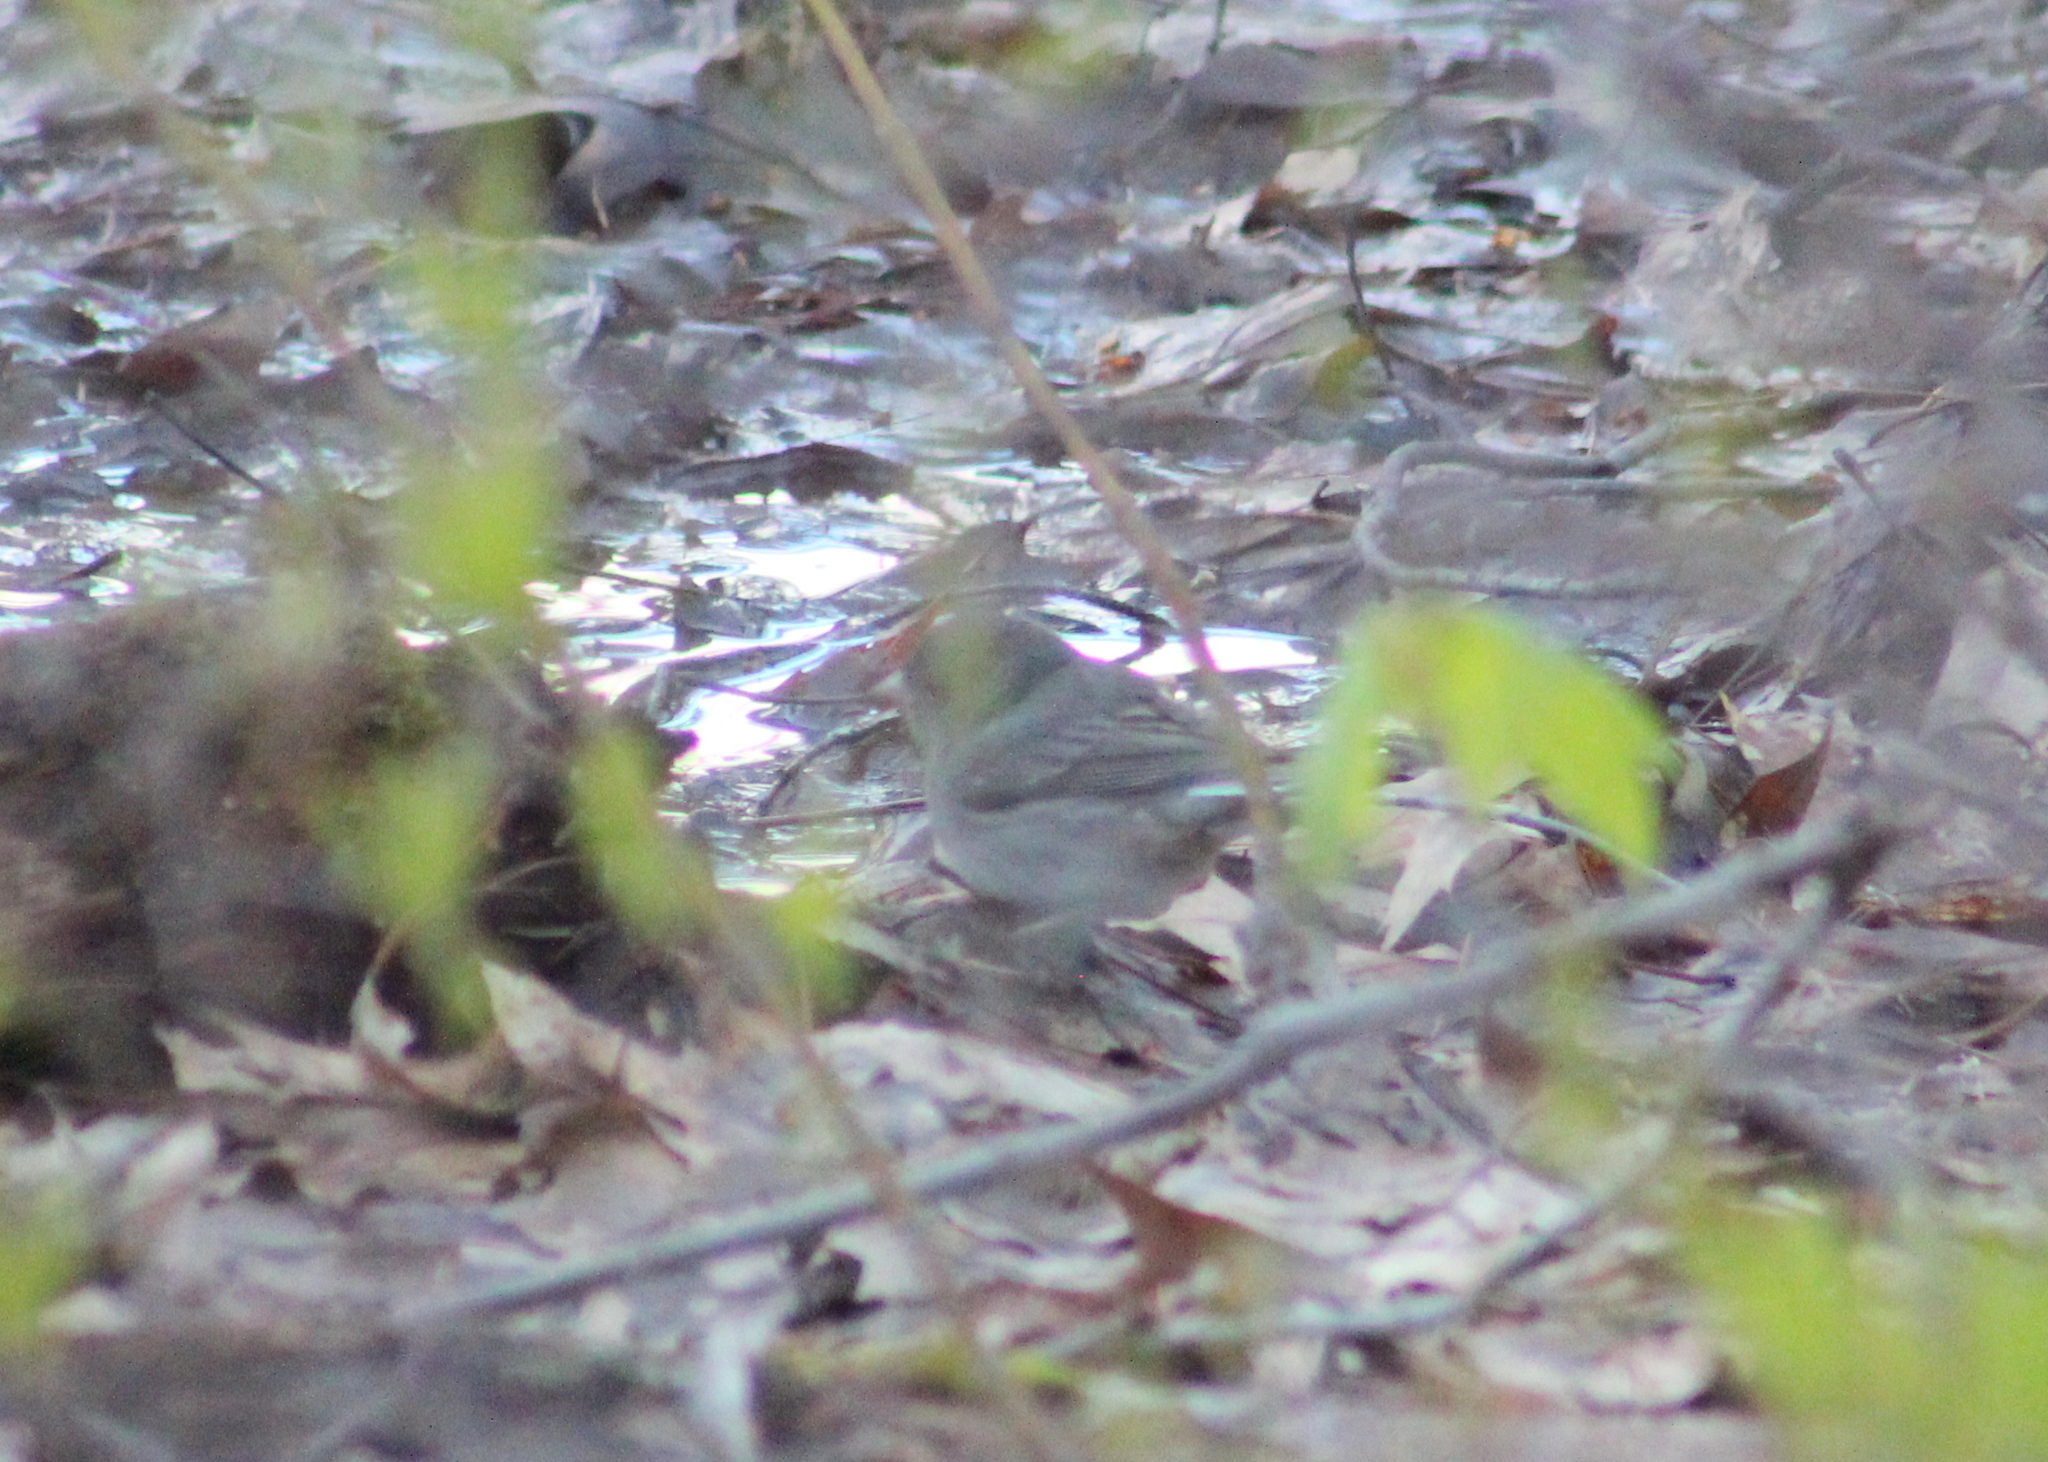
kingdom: Animalia
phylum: Chordata
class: Aves
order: Passeriformes
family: Passerellidae
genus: Junco
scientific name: Junco hyemalis
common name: Dark-eyed junco
